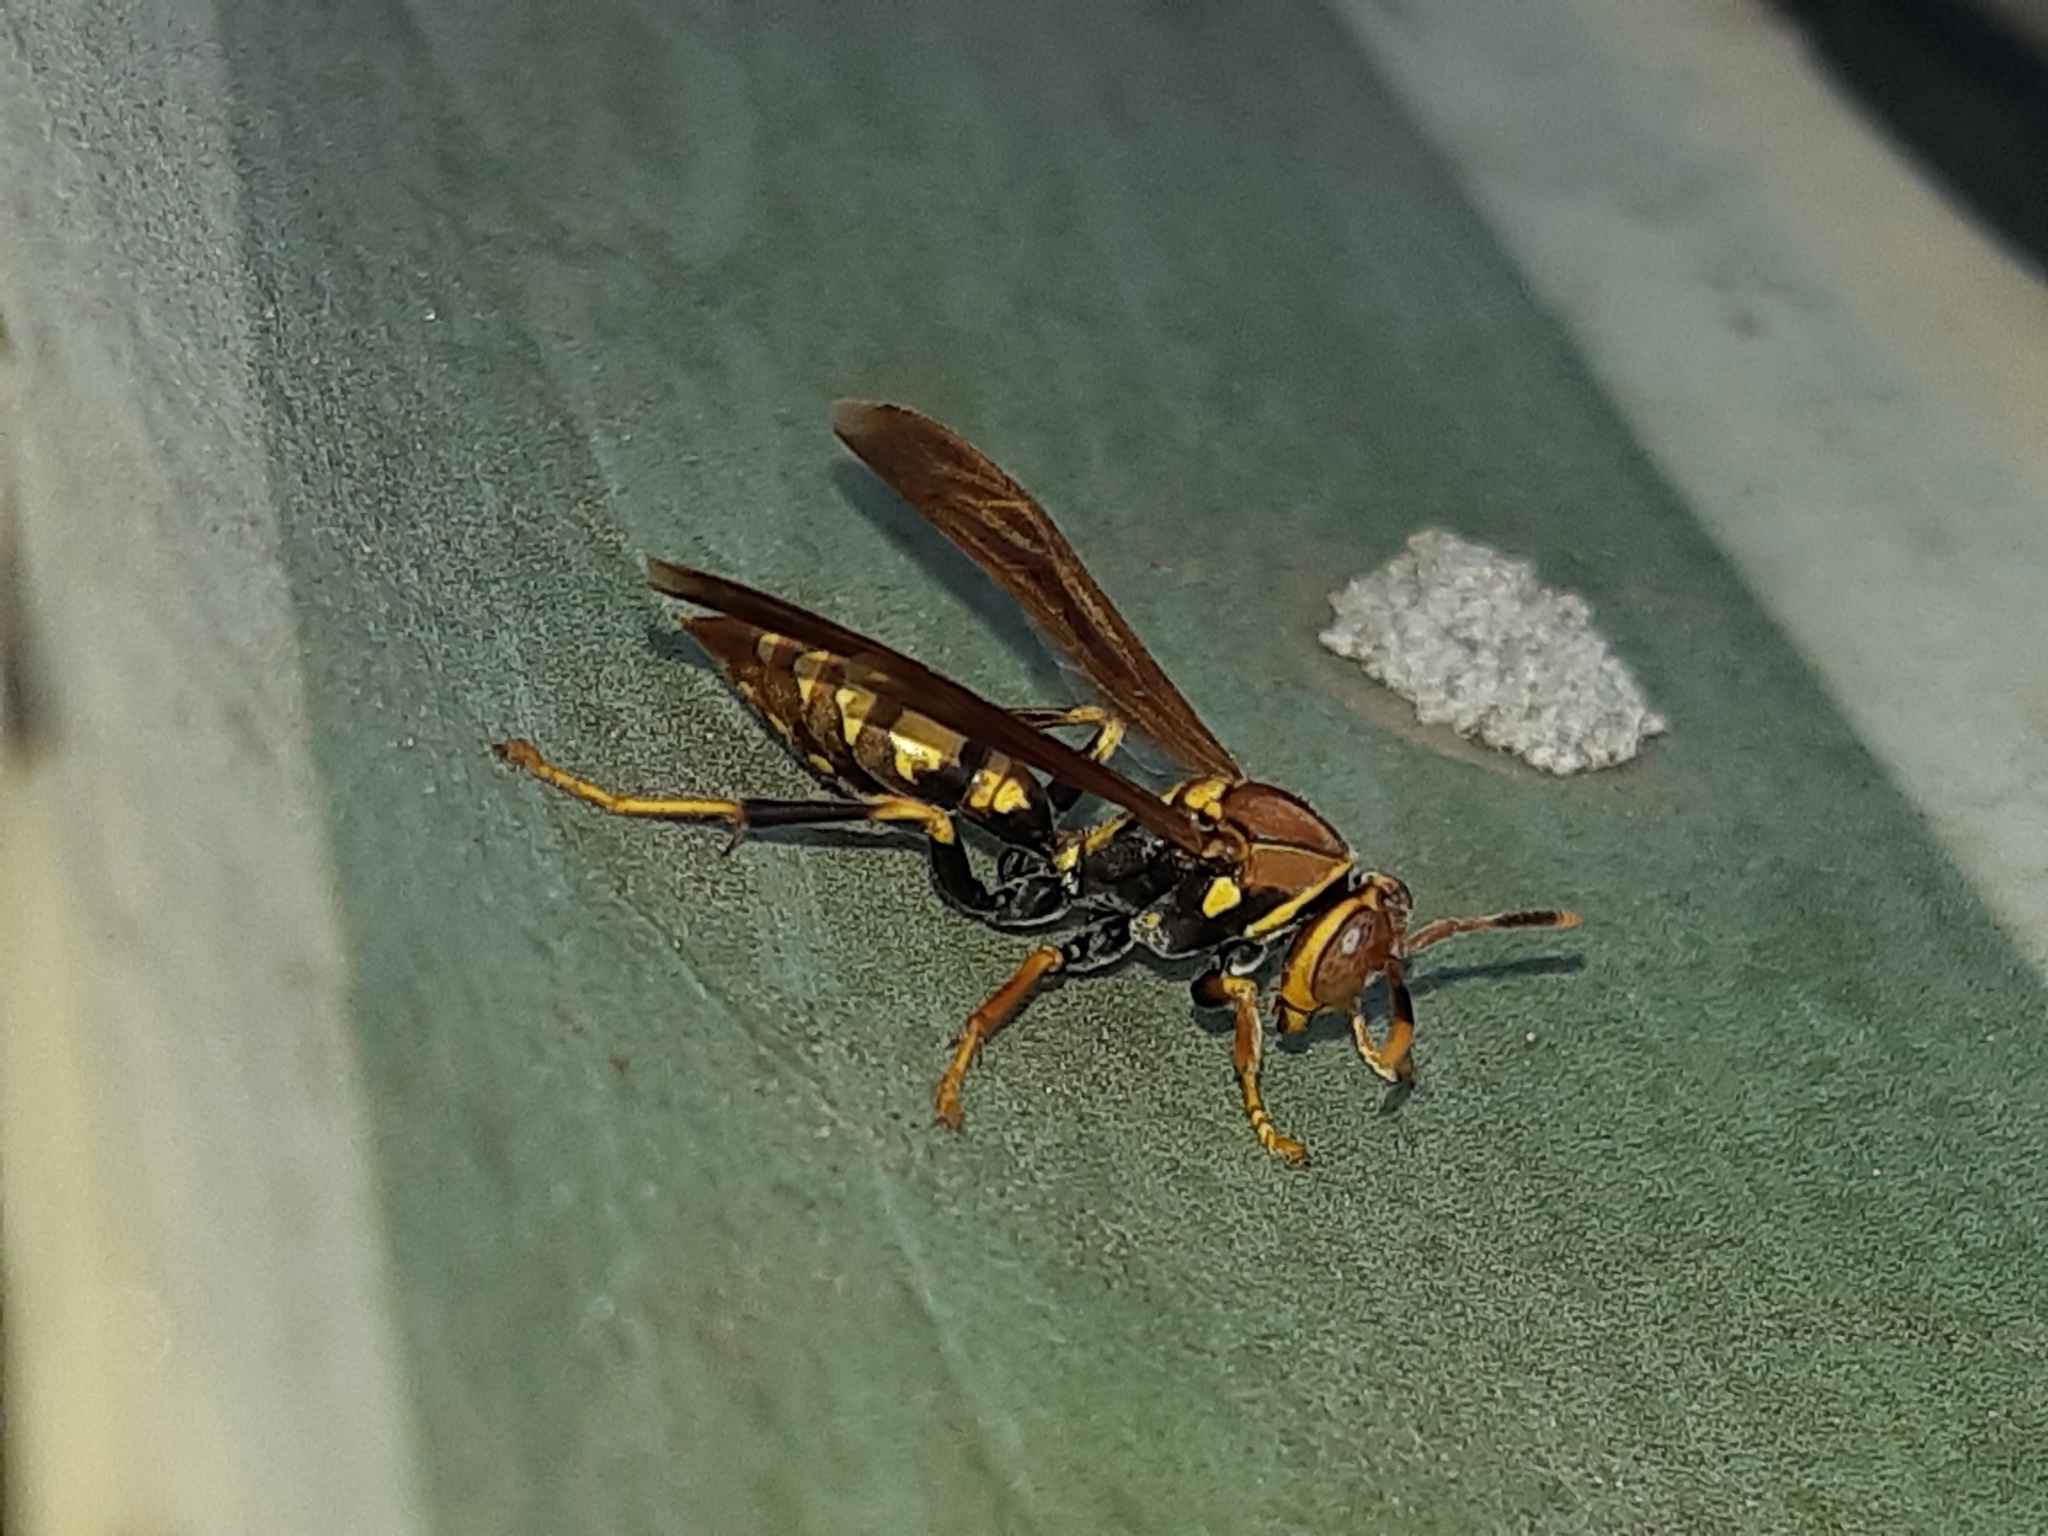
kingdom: Animalia
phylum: Arthropoda
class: Insecta
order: Hymenoptera
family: Eumenidae
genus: Polistes
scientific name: Polistes versicolor
